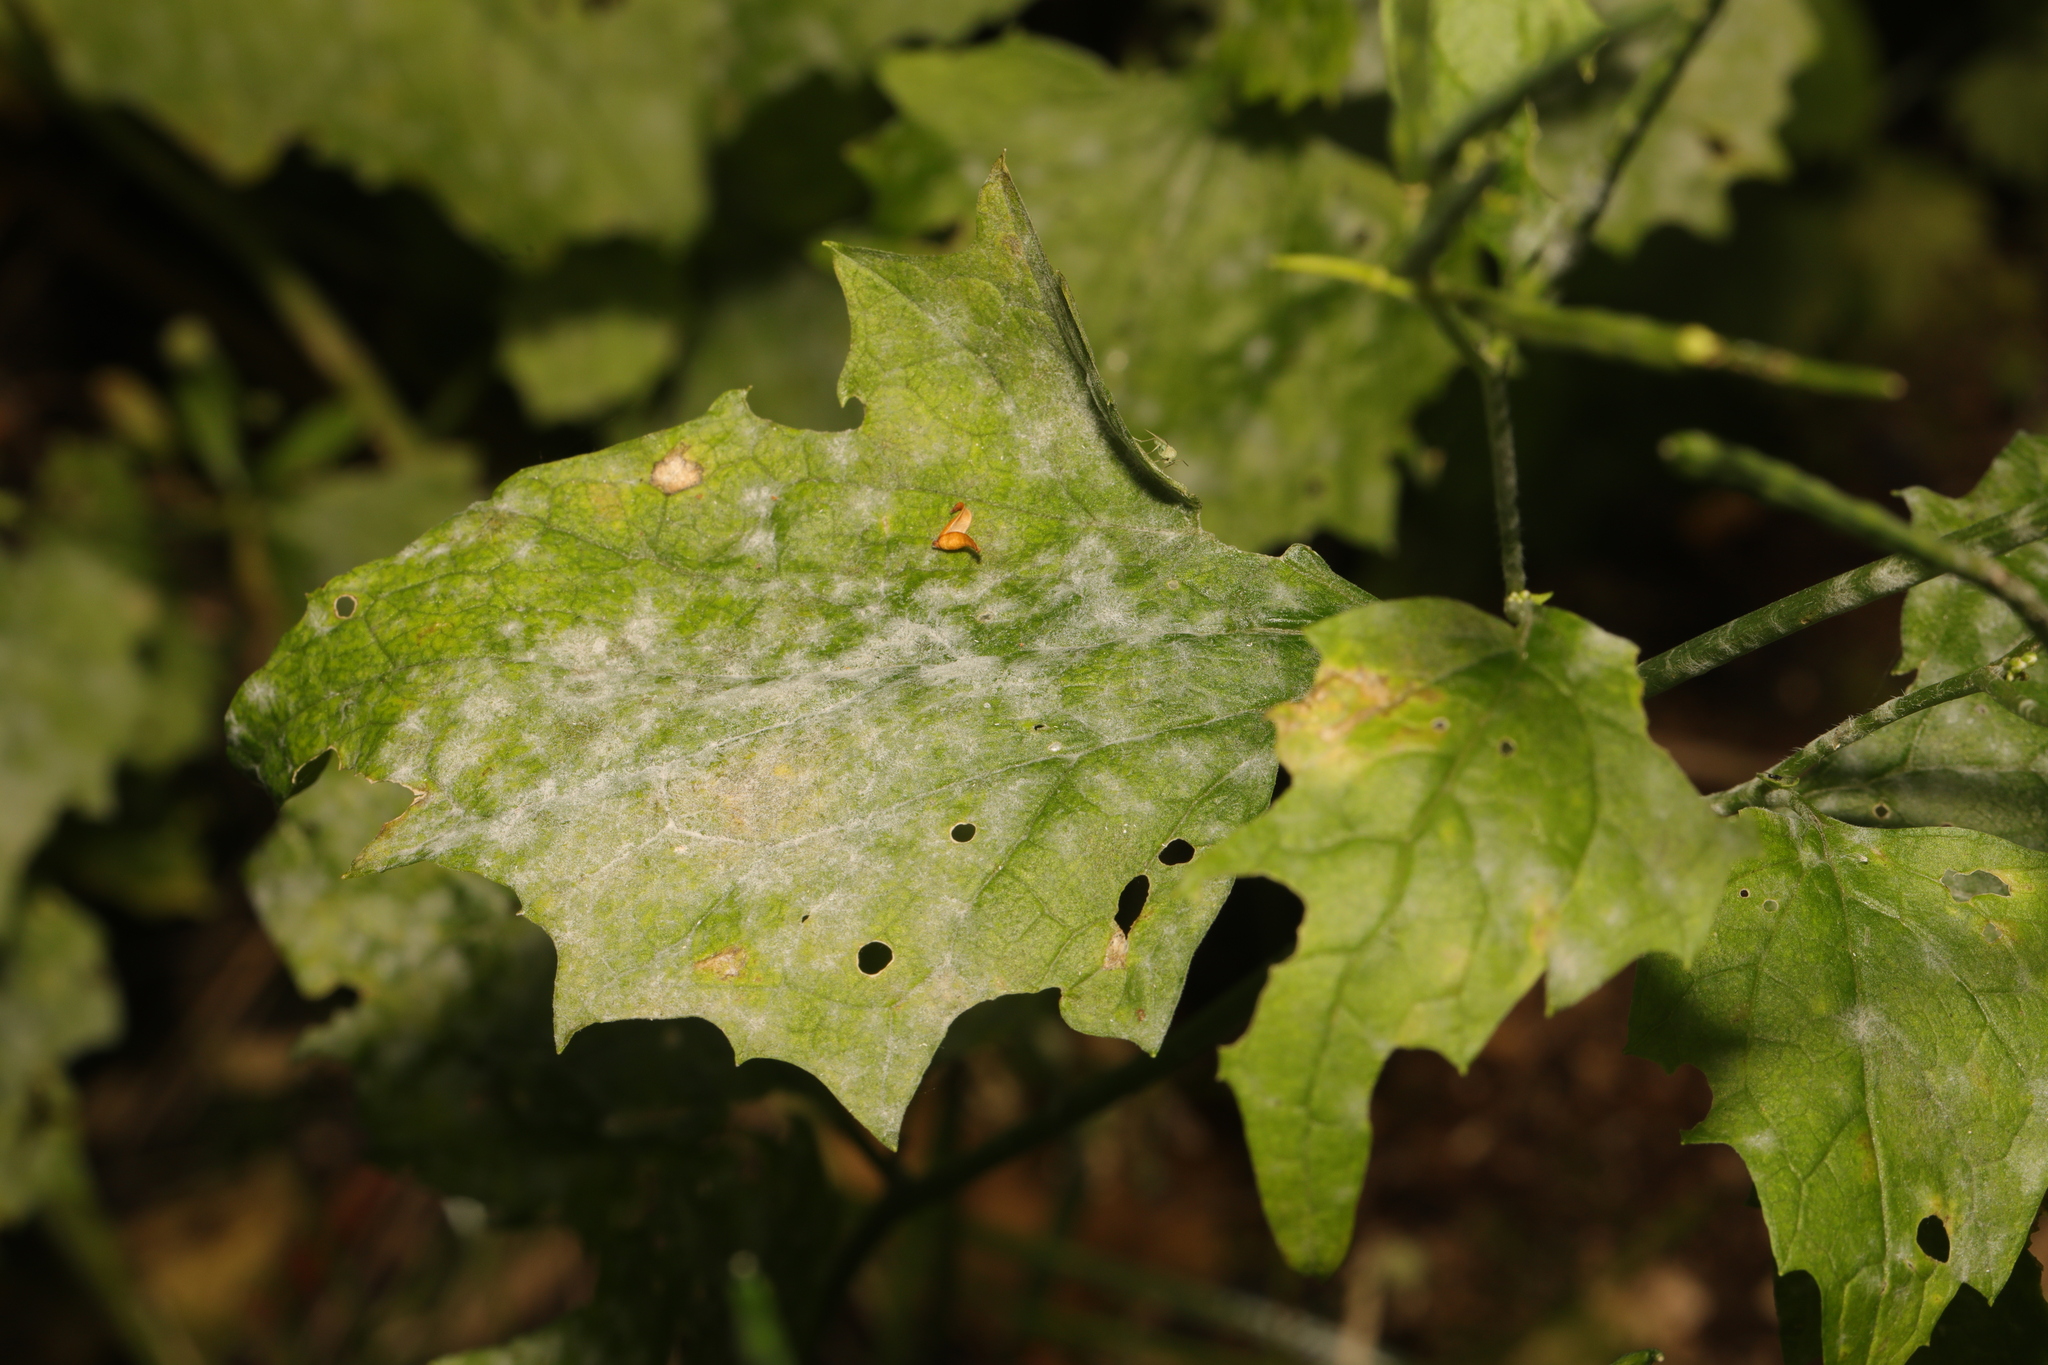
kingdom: Fungi
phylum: Ascomycota
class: Leotiomycetes
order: Helotiales
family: Erysiphaceae
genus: Erysiphe
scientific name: Erysiphe cruciferarum
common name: Brassica powdery mildew
